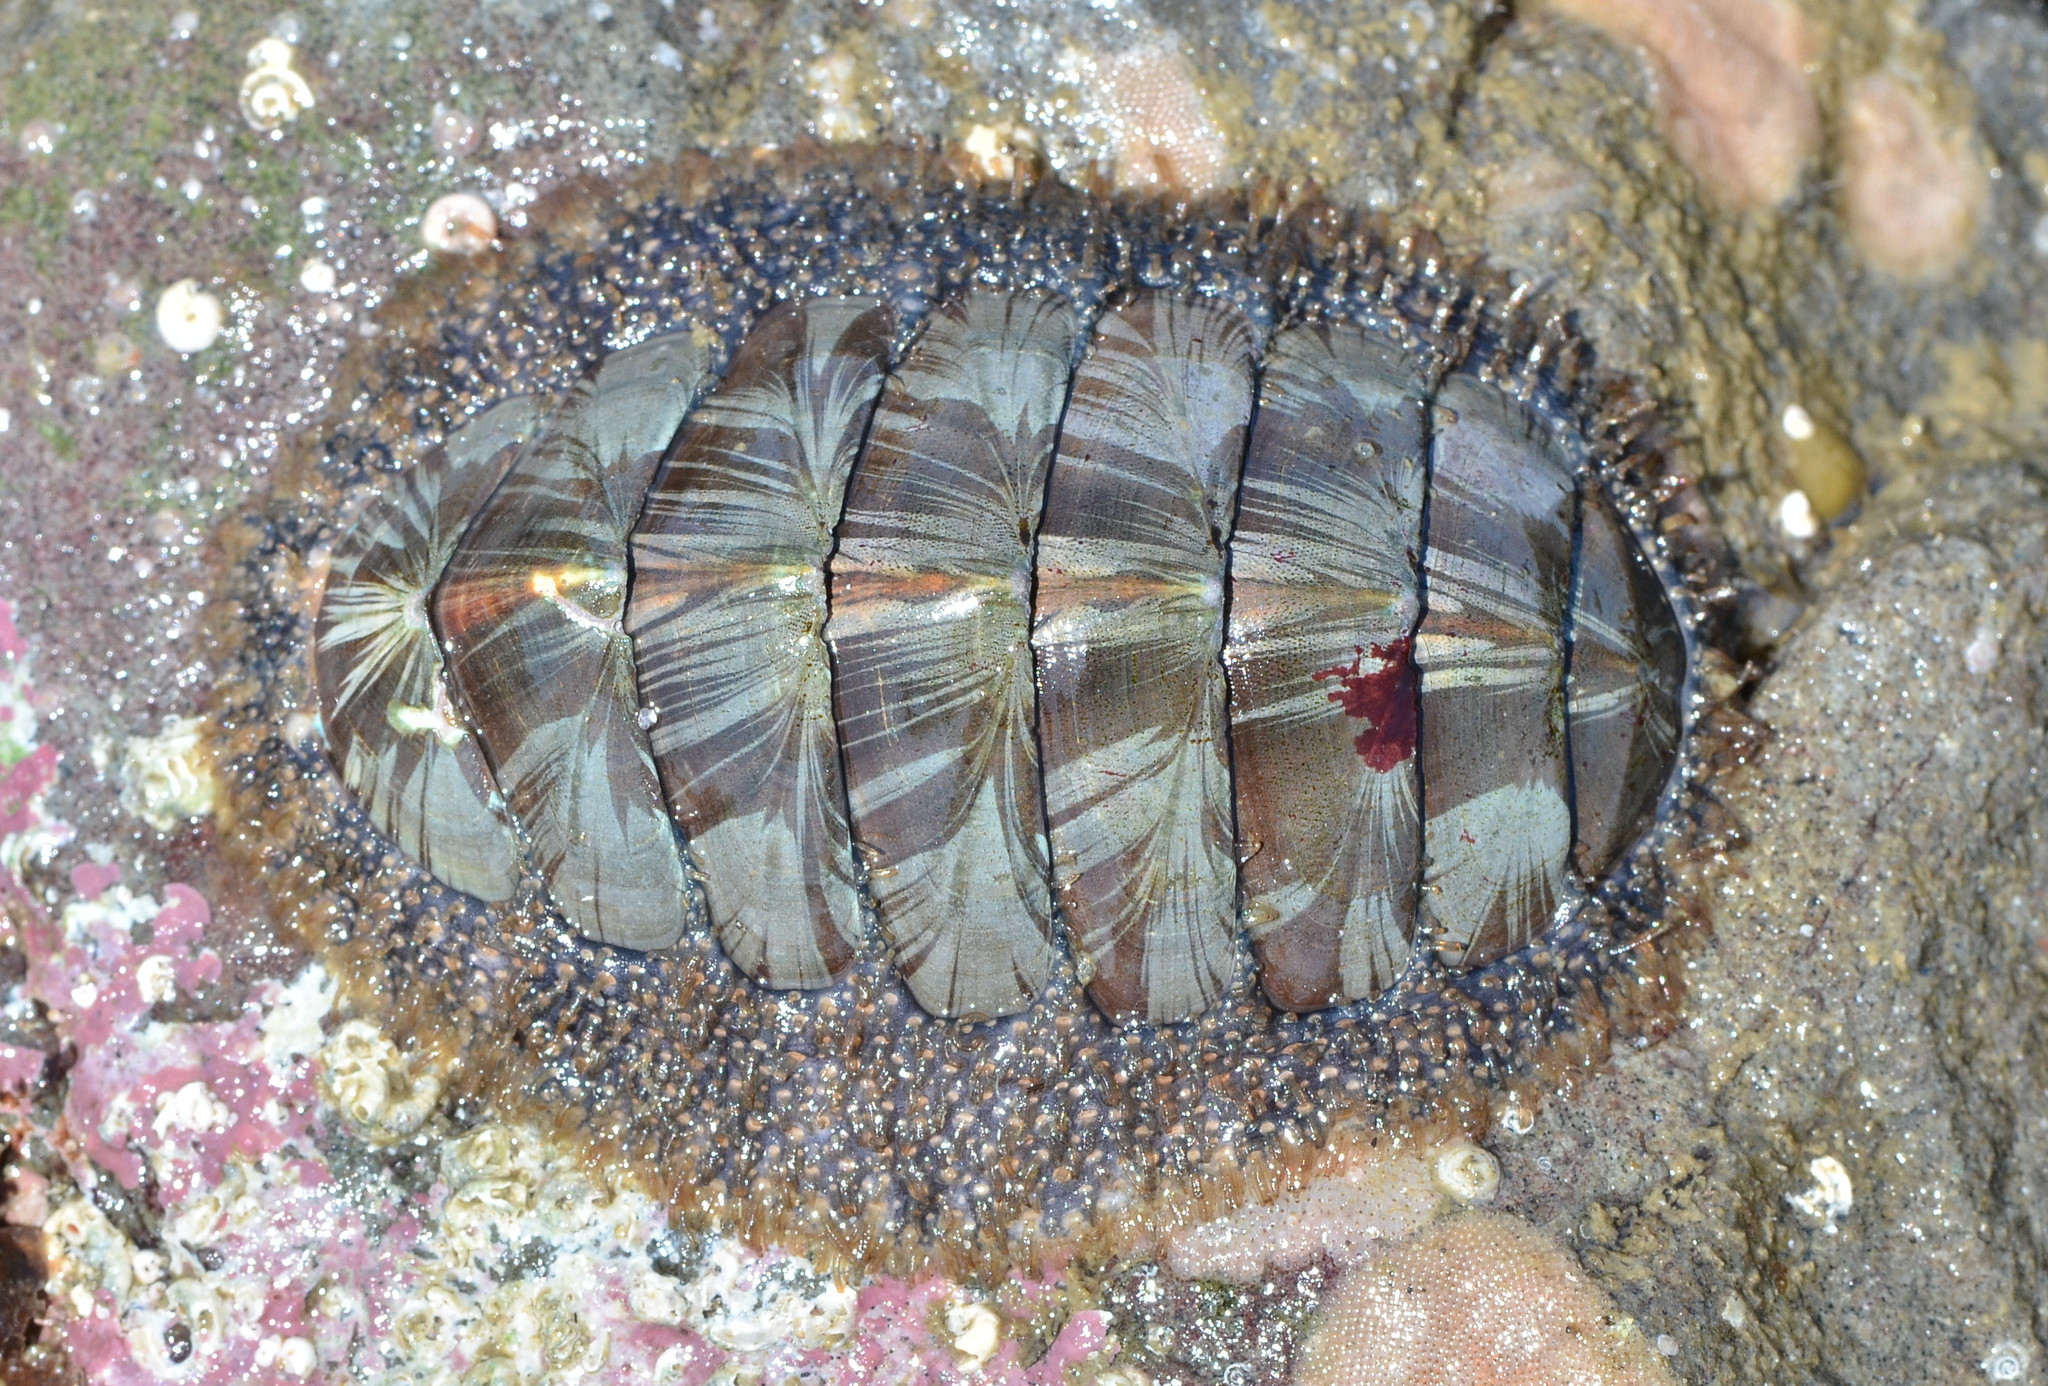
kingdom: Animalia
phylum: Mollusca
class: Polyplacophora
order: Chitonida
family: Mopaliidae
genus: Mopalia
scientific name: Mopalia lignosa
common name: Woody chiton
